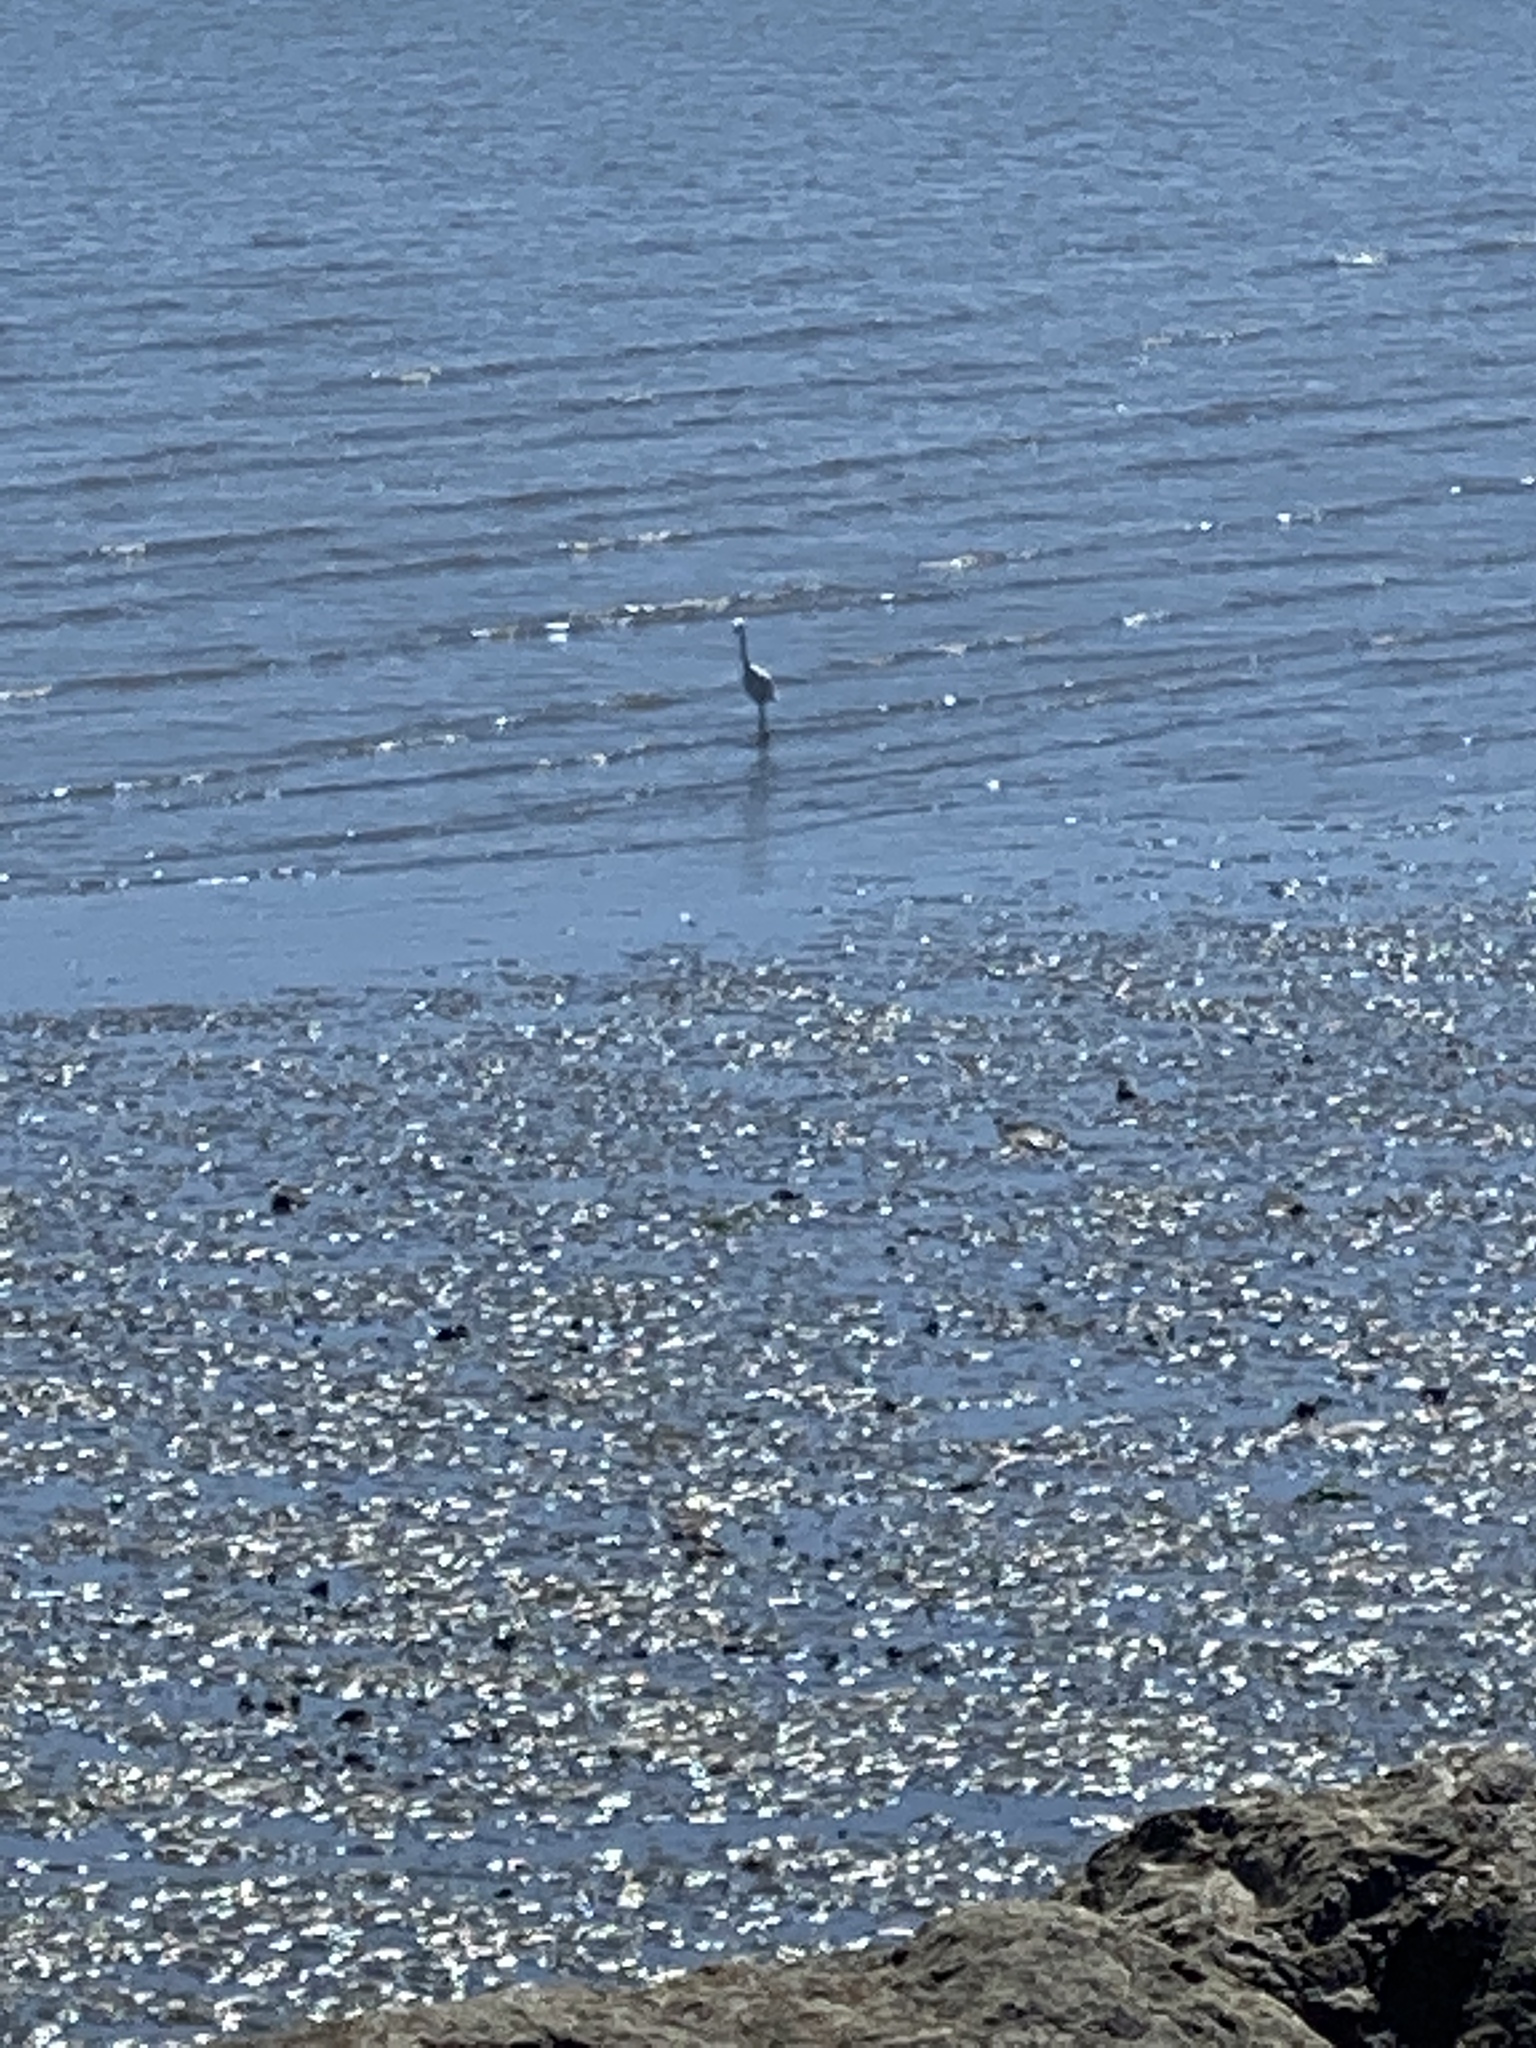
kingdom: Animalia
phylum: Chordata
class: Aves
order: Pelecaniformes
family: Ardeidae
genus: Egretta
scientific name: Egretta thula
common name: Snowy egret
